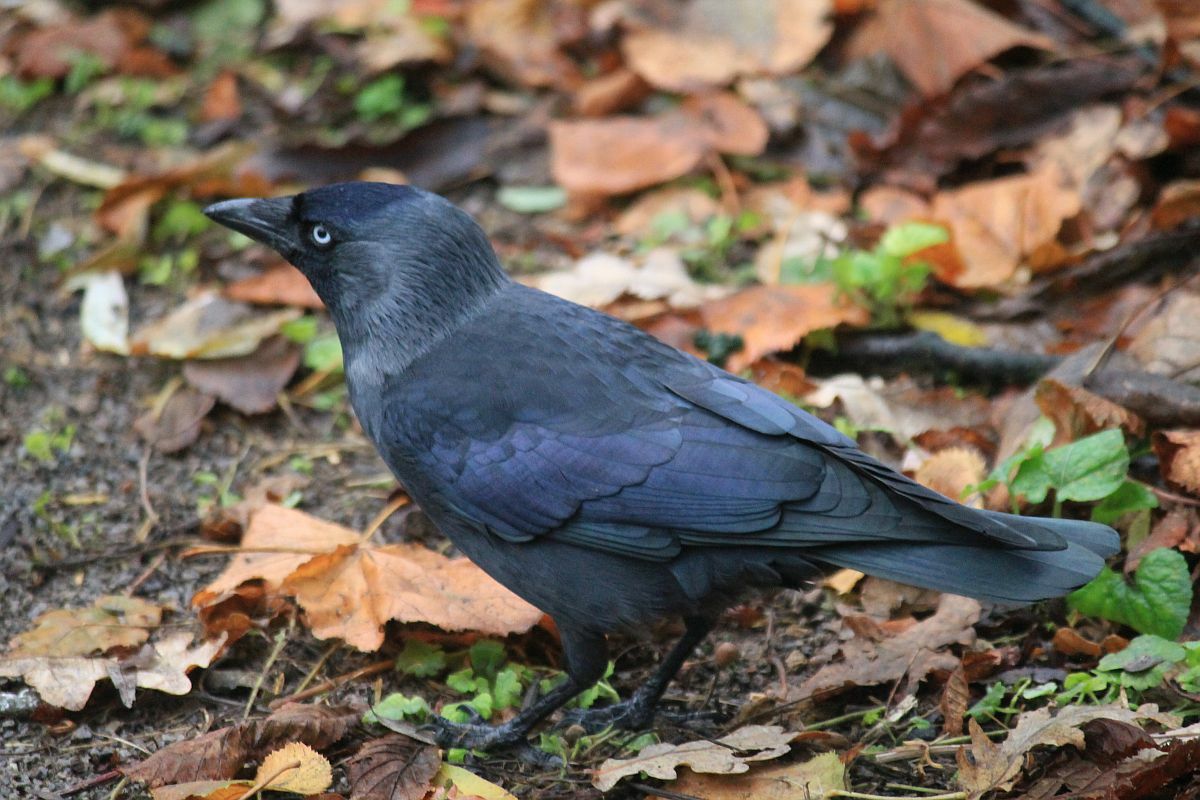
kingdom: Animalia
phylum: Chordata
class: Aves
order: Passeriformes
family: Corvidae
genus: Coloeus
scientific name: Coloeus monedula
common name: Western jackdaw
